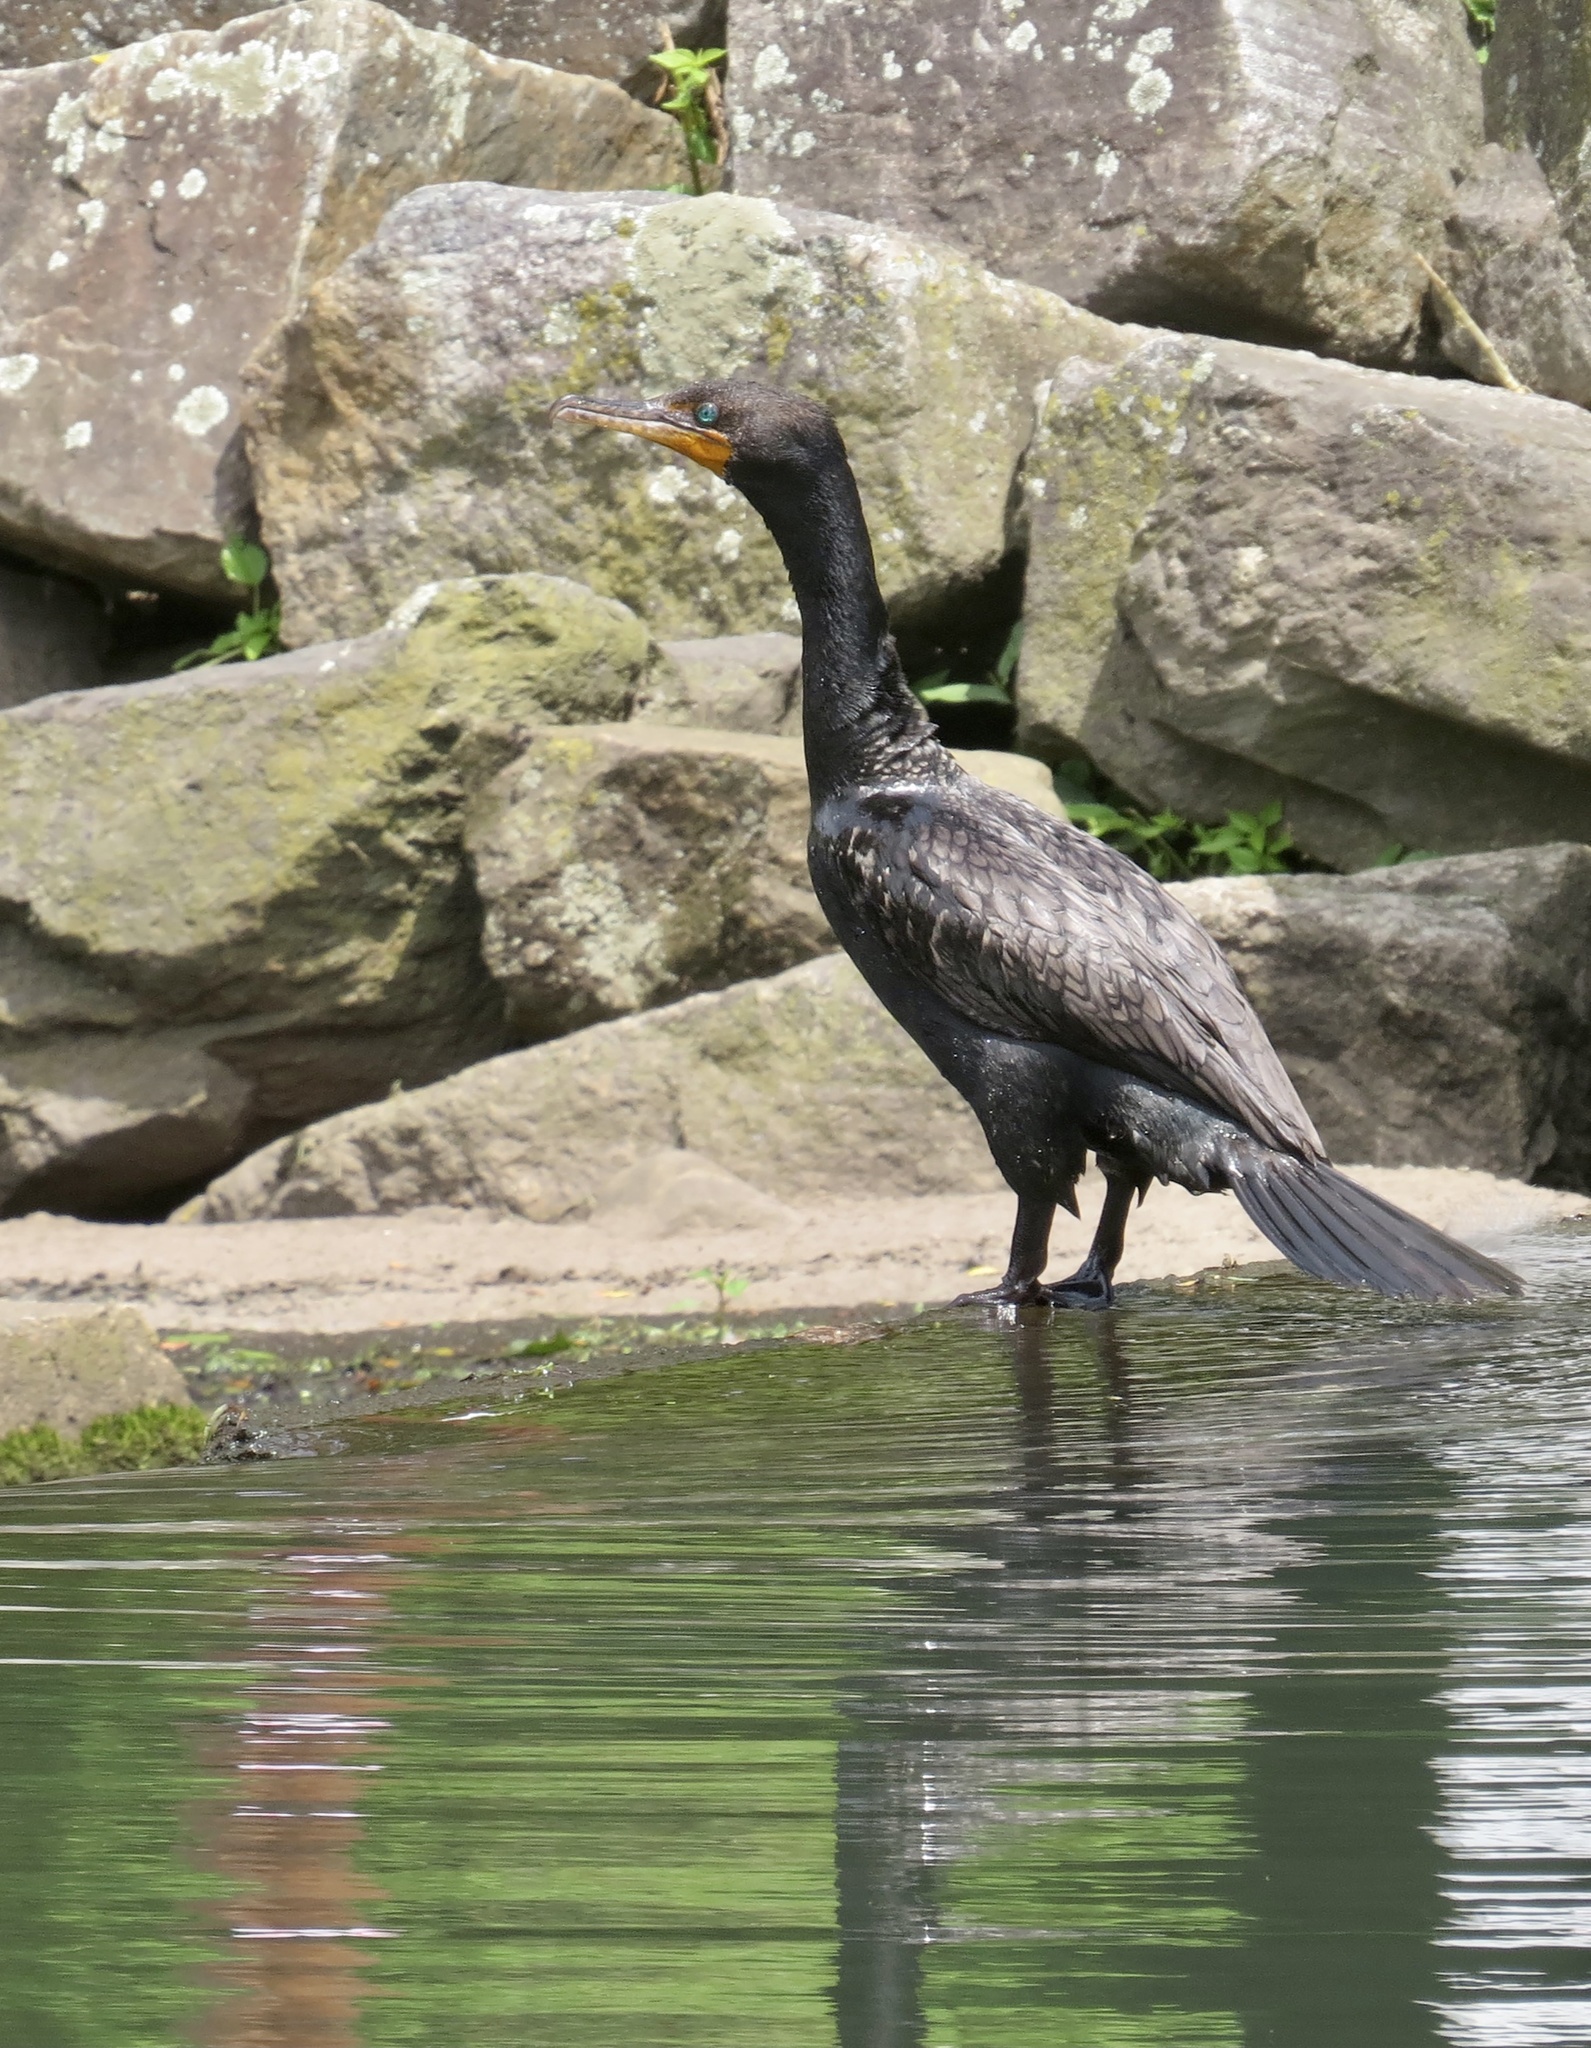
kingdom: Animalia
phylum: Chordata
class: Aves
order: Suliformes
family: Phalacrocoracidae
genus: Phalacrocorax
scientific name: Phalacrocorax auritus
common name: Double-crested cormorant
